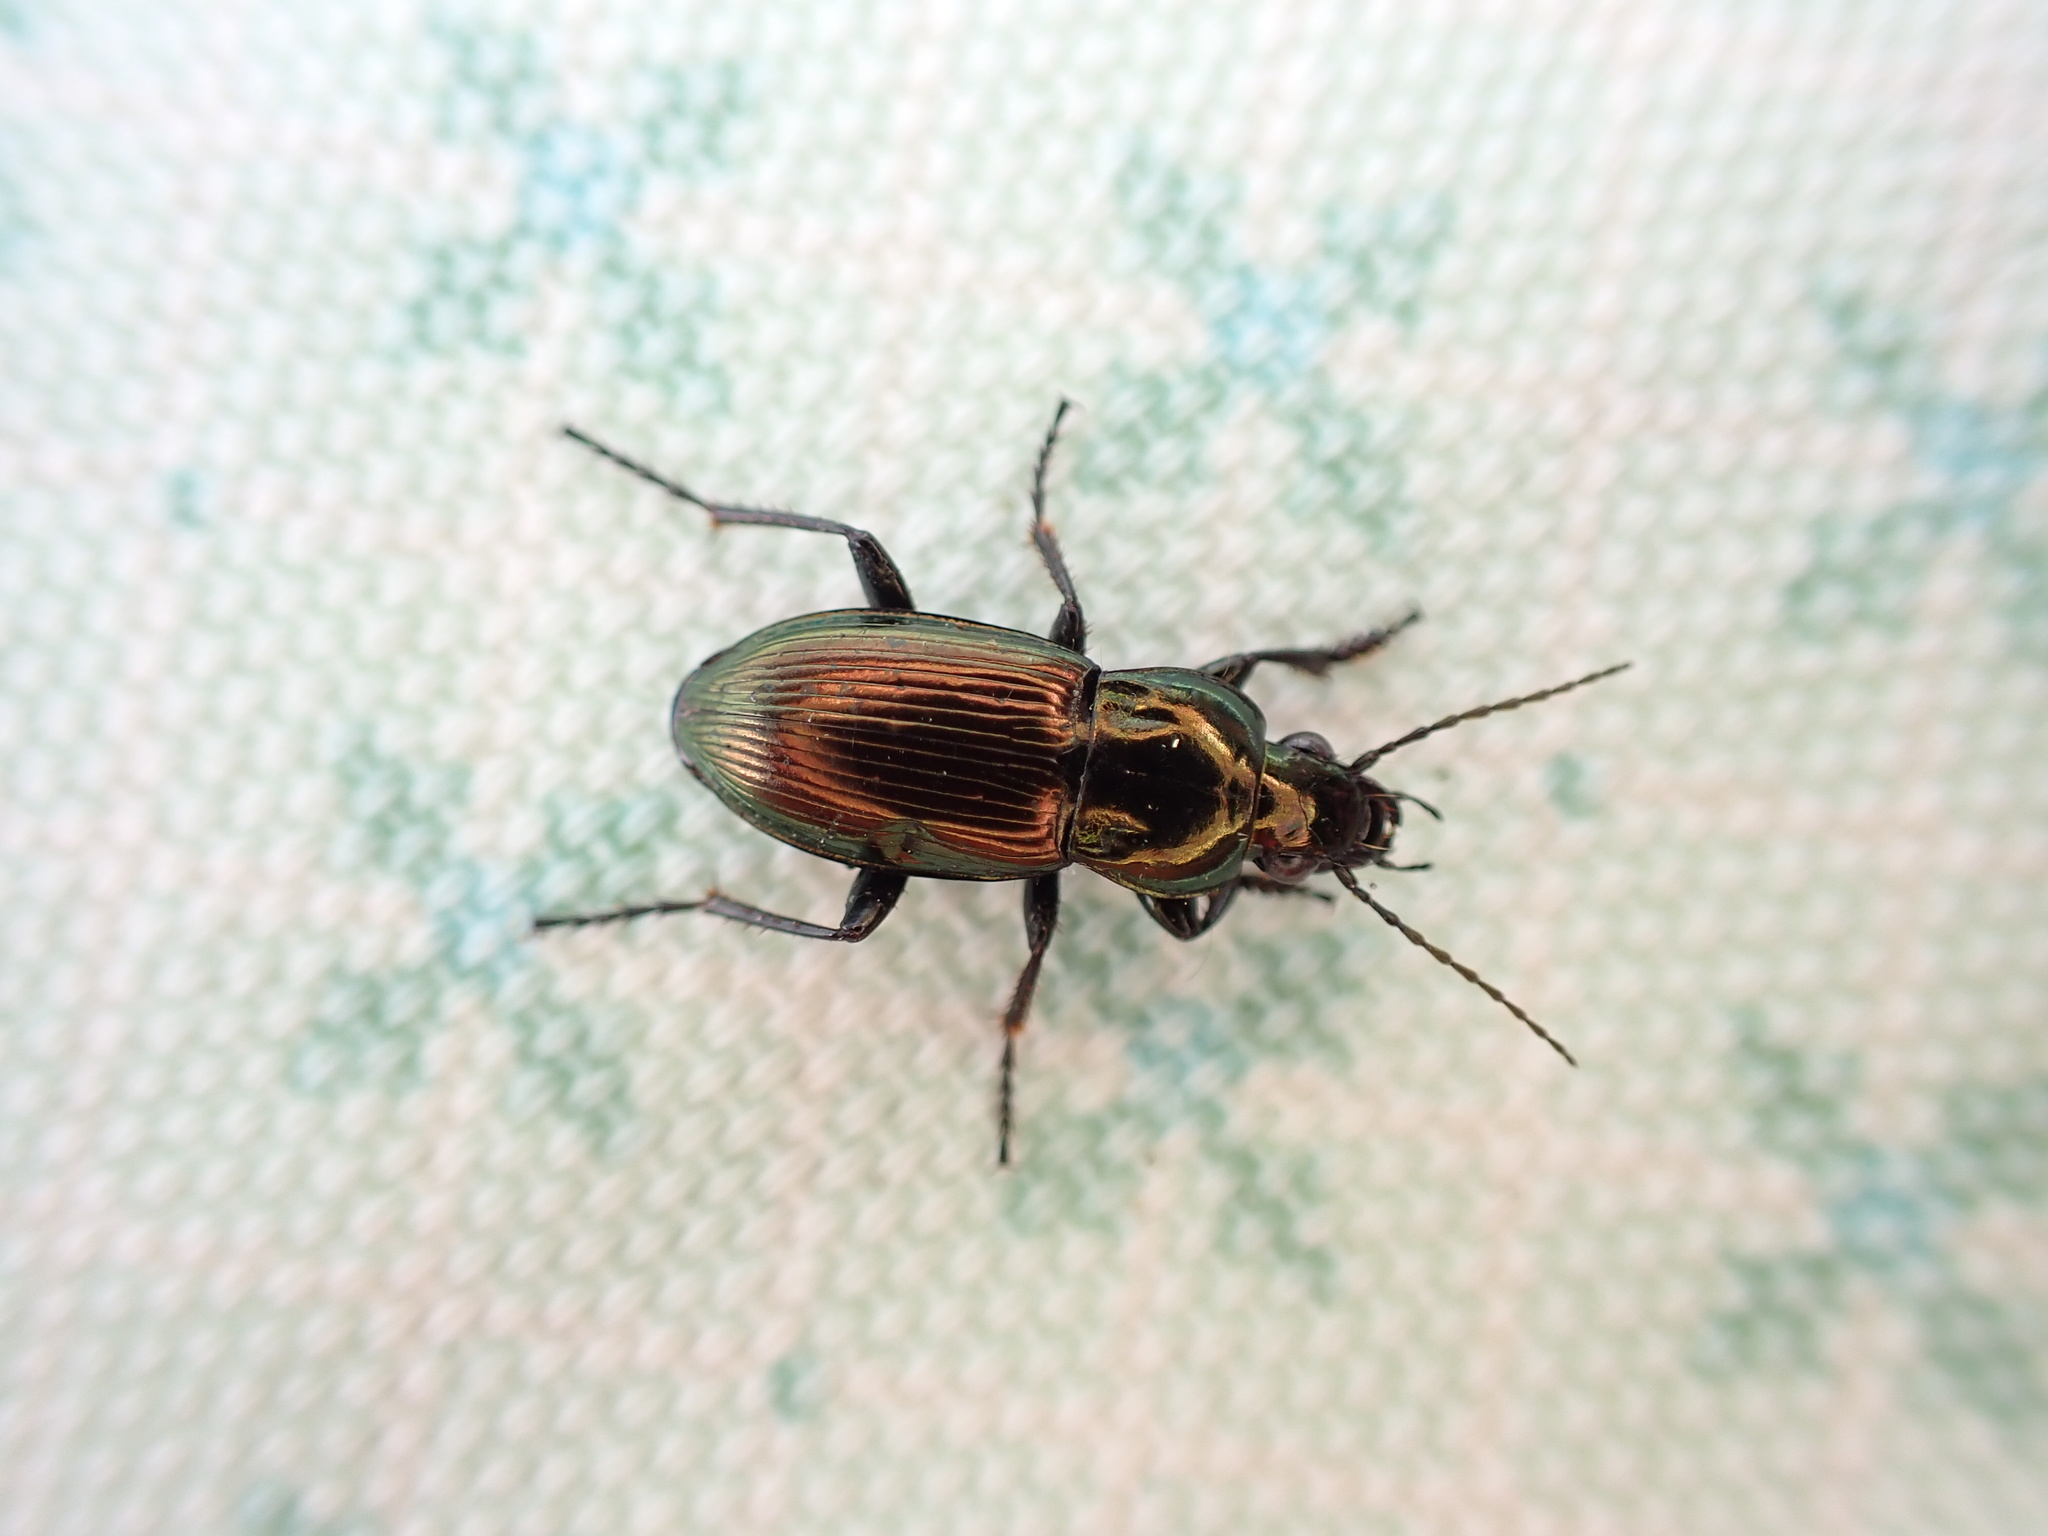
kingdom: Animalia
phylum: Arthropoda
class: Insecta
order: Coleoptera
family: Carabidae
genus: Poecilus
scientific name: Poecilus lepidus
